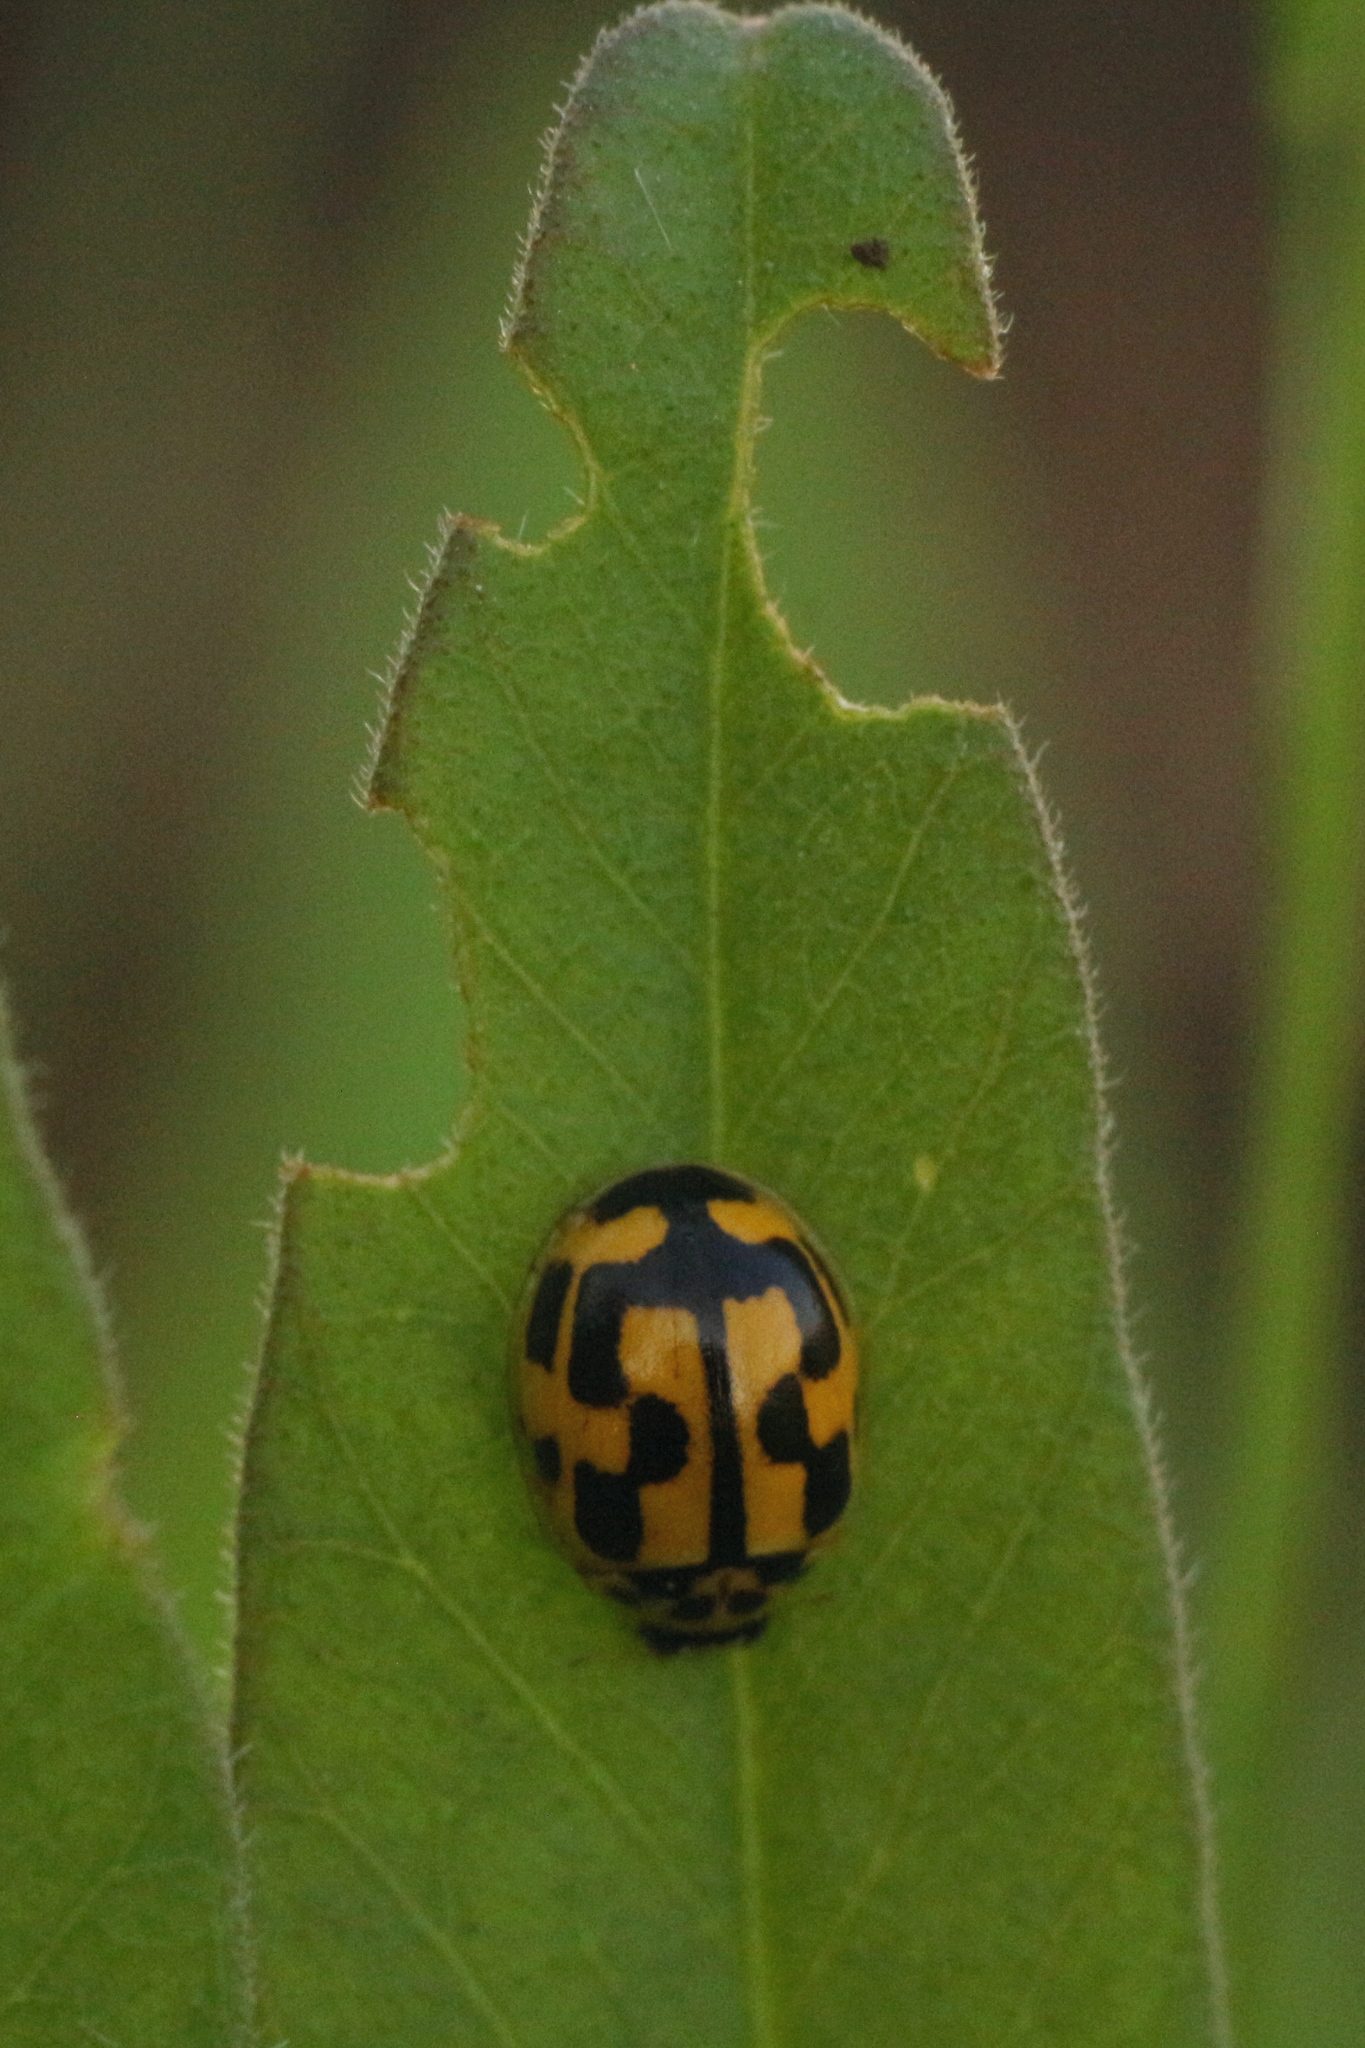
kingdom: Animalia
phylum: Arthropoda
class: Insecta
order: Coleoptera
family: Coccinellidae
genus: Propylaea
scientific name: Propylaea quatuordecimpunctata
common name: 14-spotted ladybird beetle
